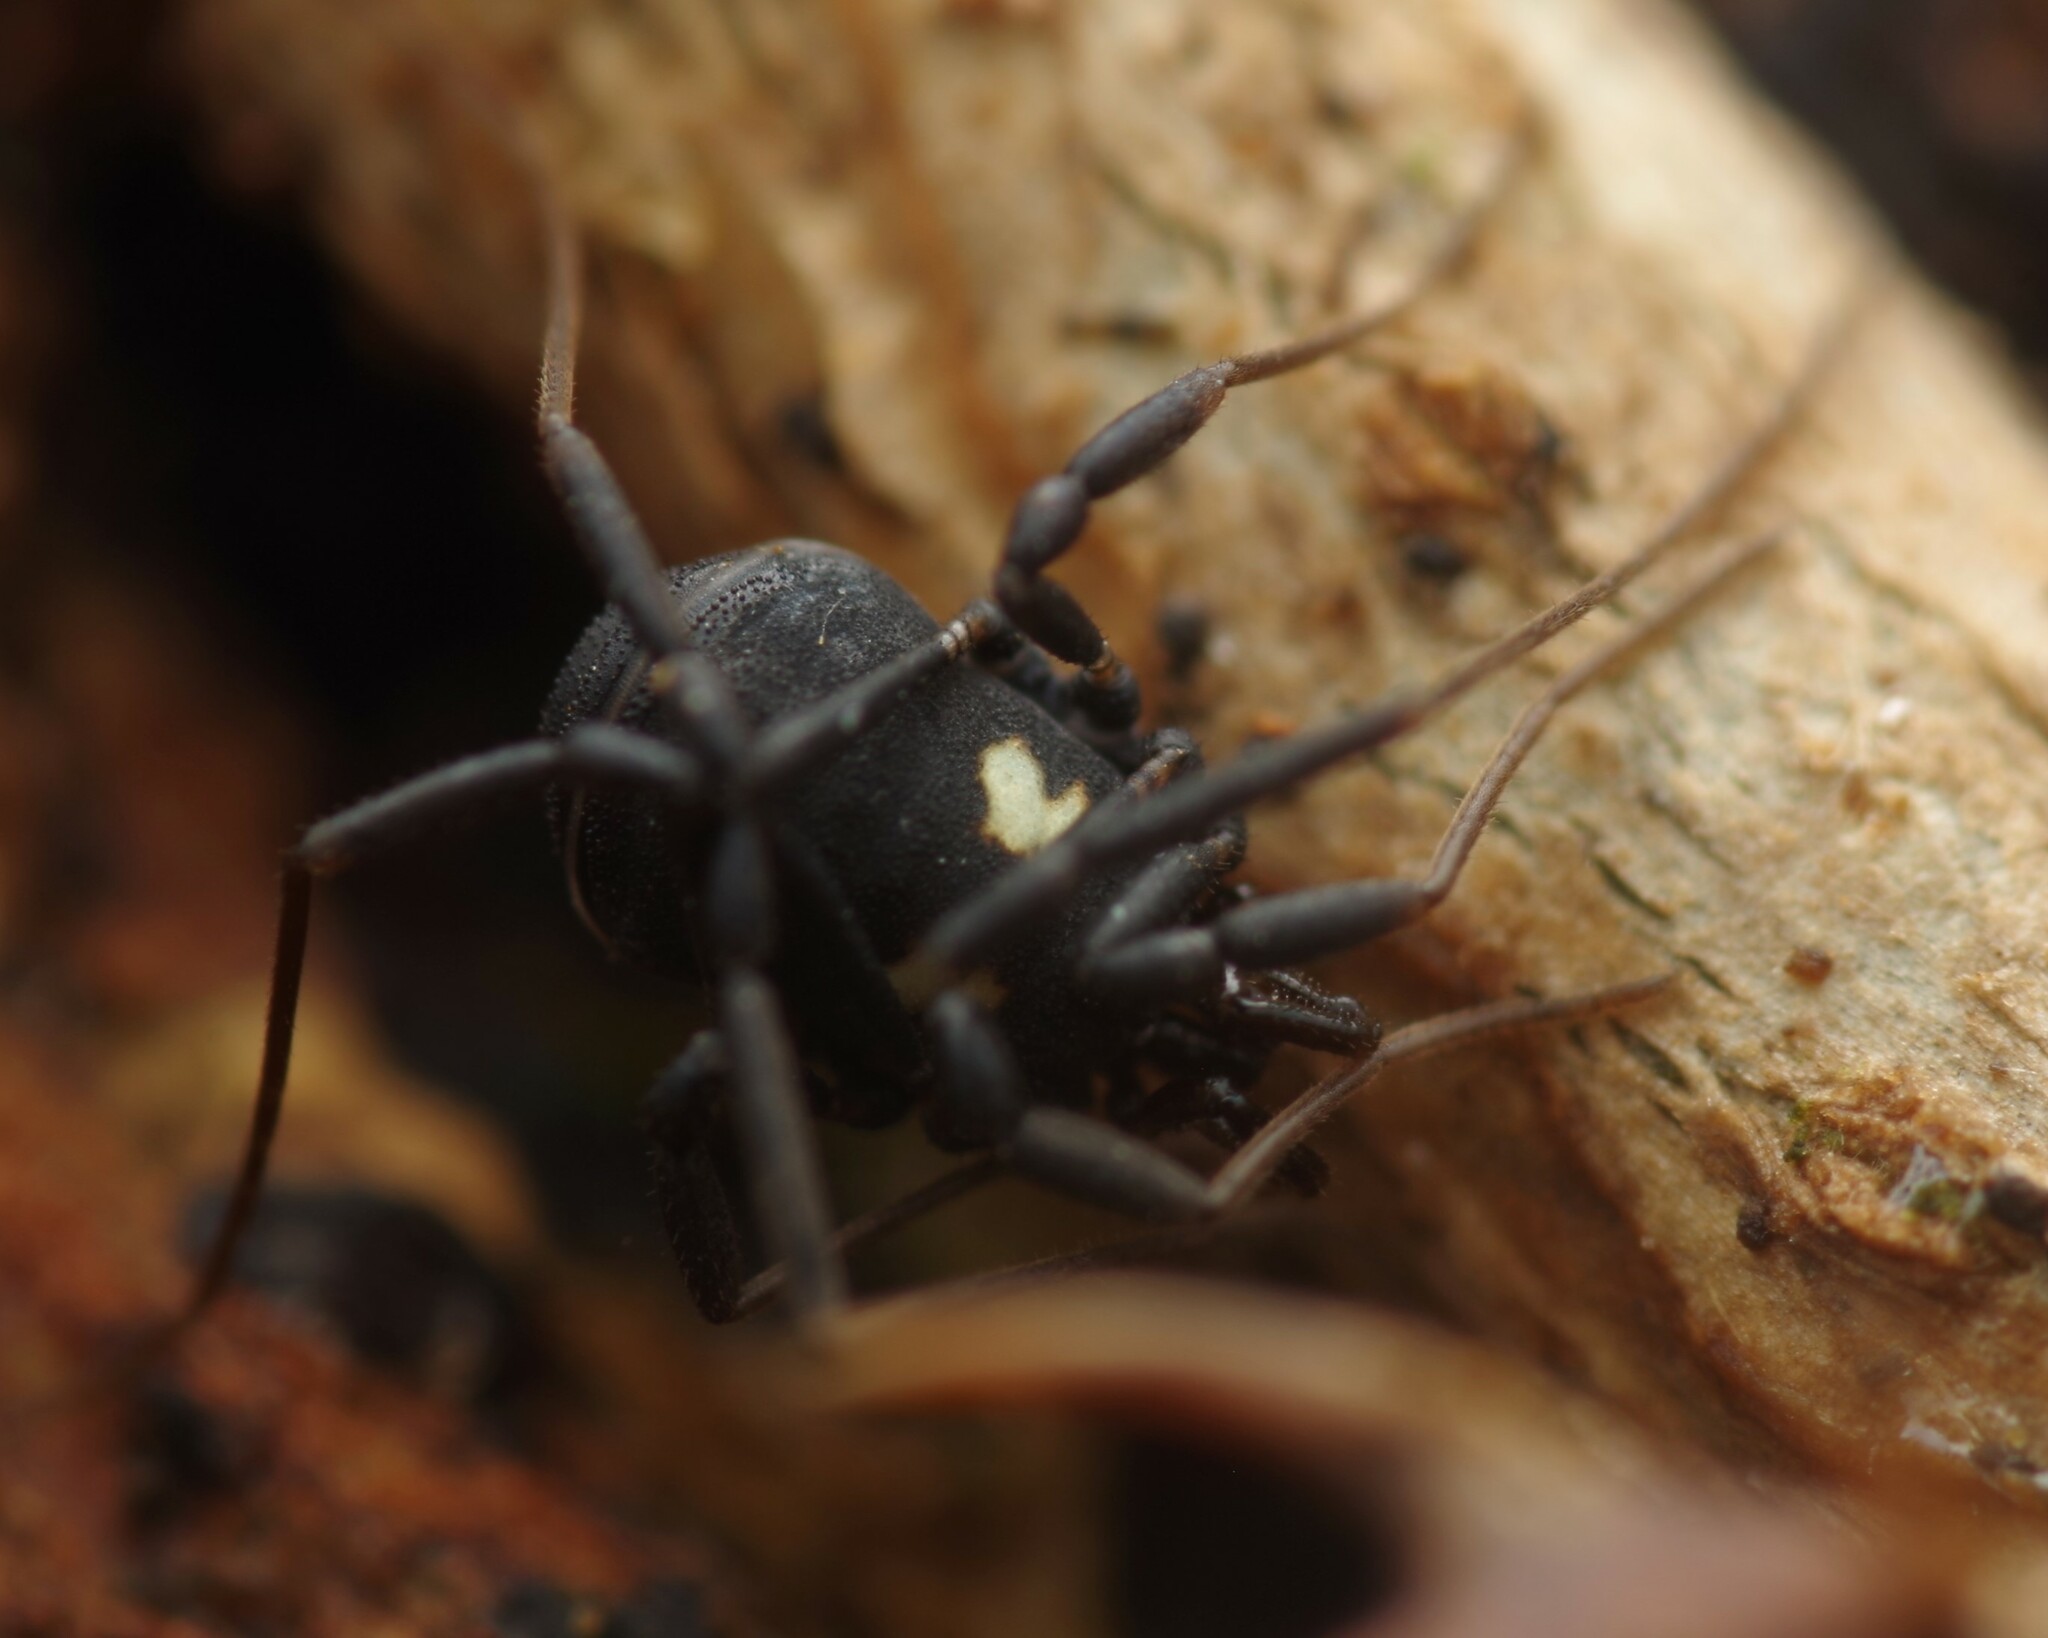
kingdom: Animalia
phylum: Arthropoda
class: Arachnida
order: Opiliones
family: Nemastomatidae
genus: Nemastoma
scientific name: Nemastoma bimaculatum
